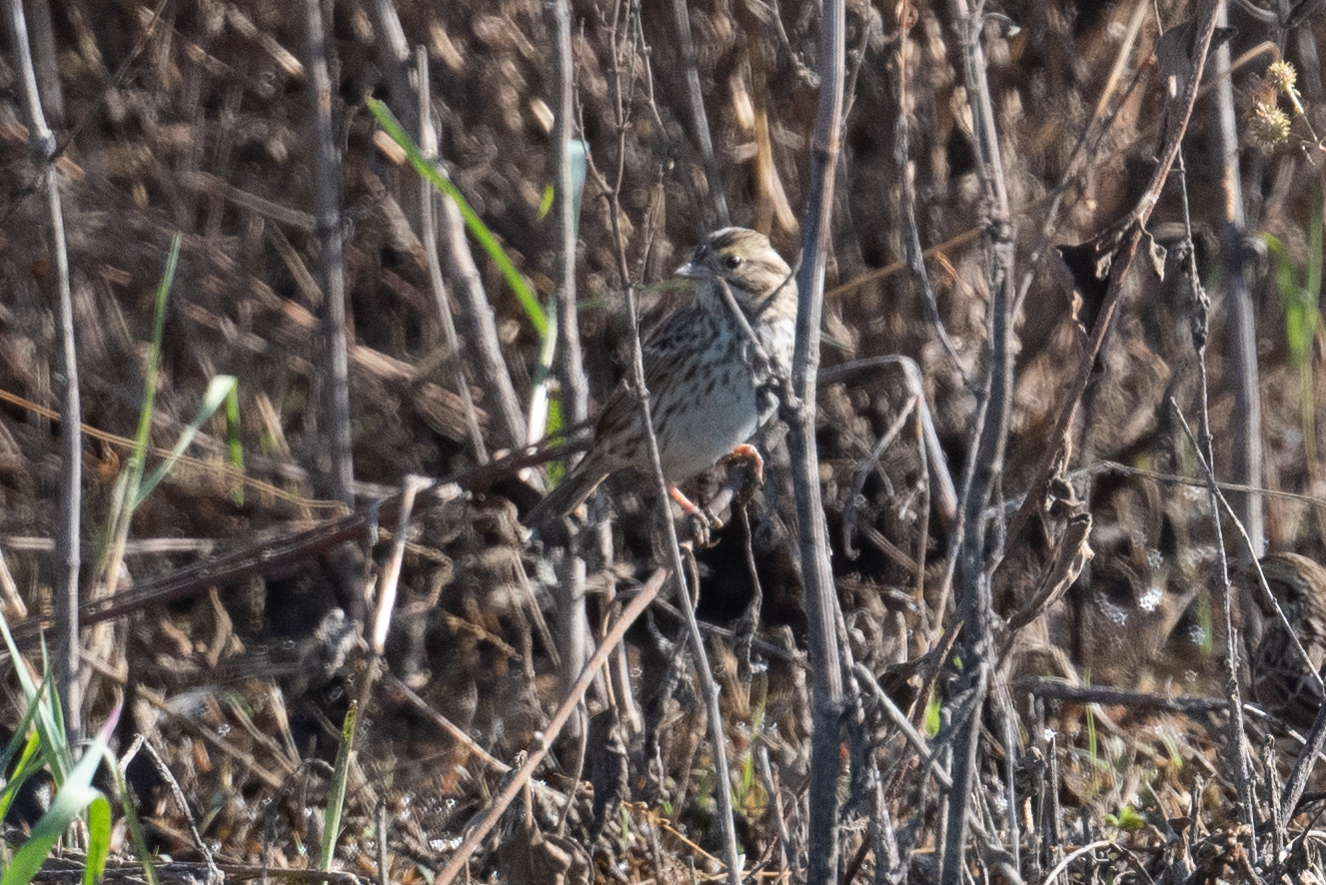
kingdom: Animalia
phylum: Chordata
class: Aves
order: Passeriformes
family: Passerellidae
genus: Passerculus
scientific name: Passerculus sandwichensis
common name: Savannah sparrow
